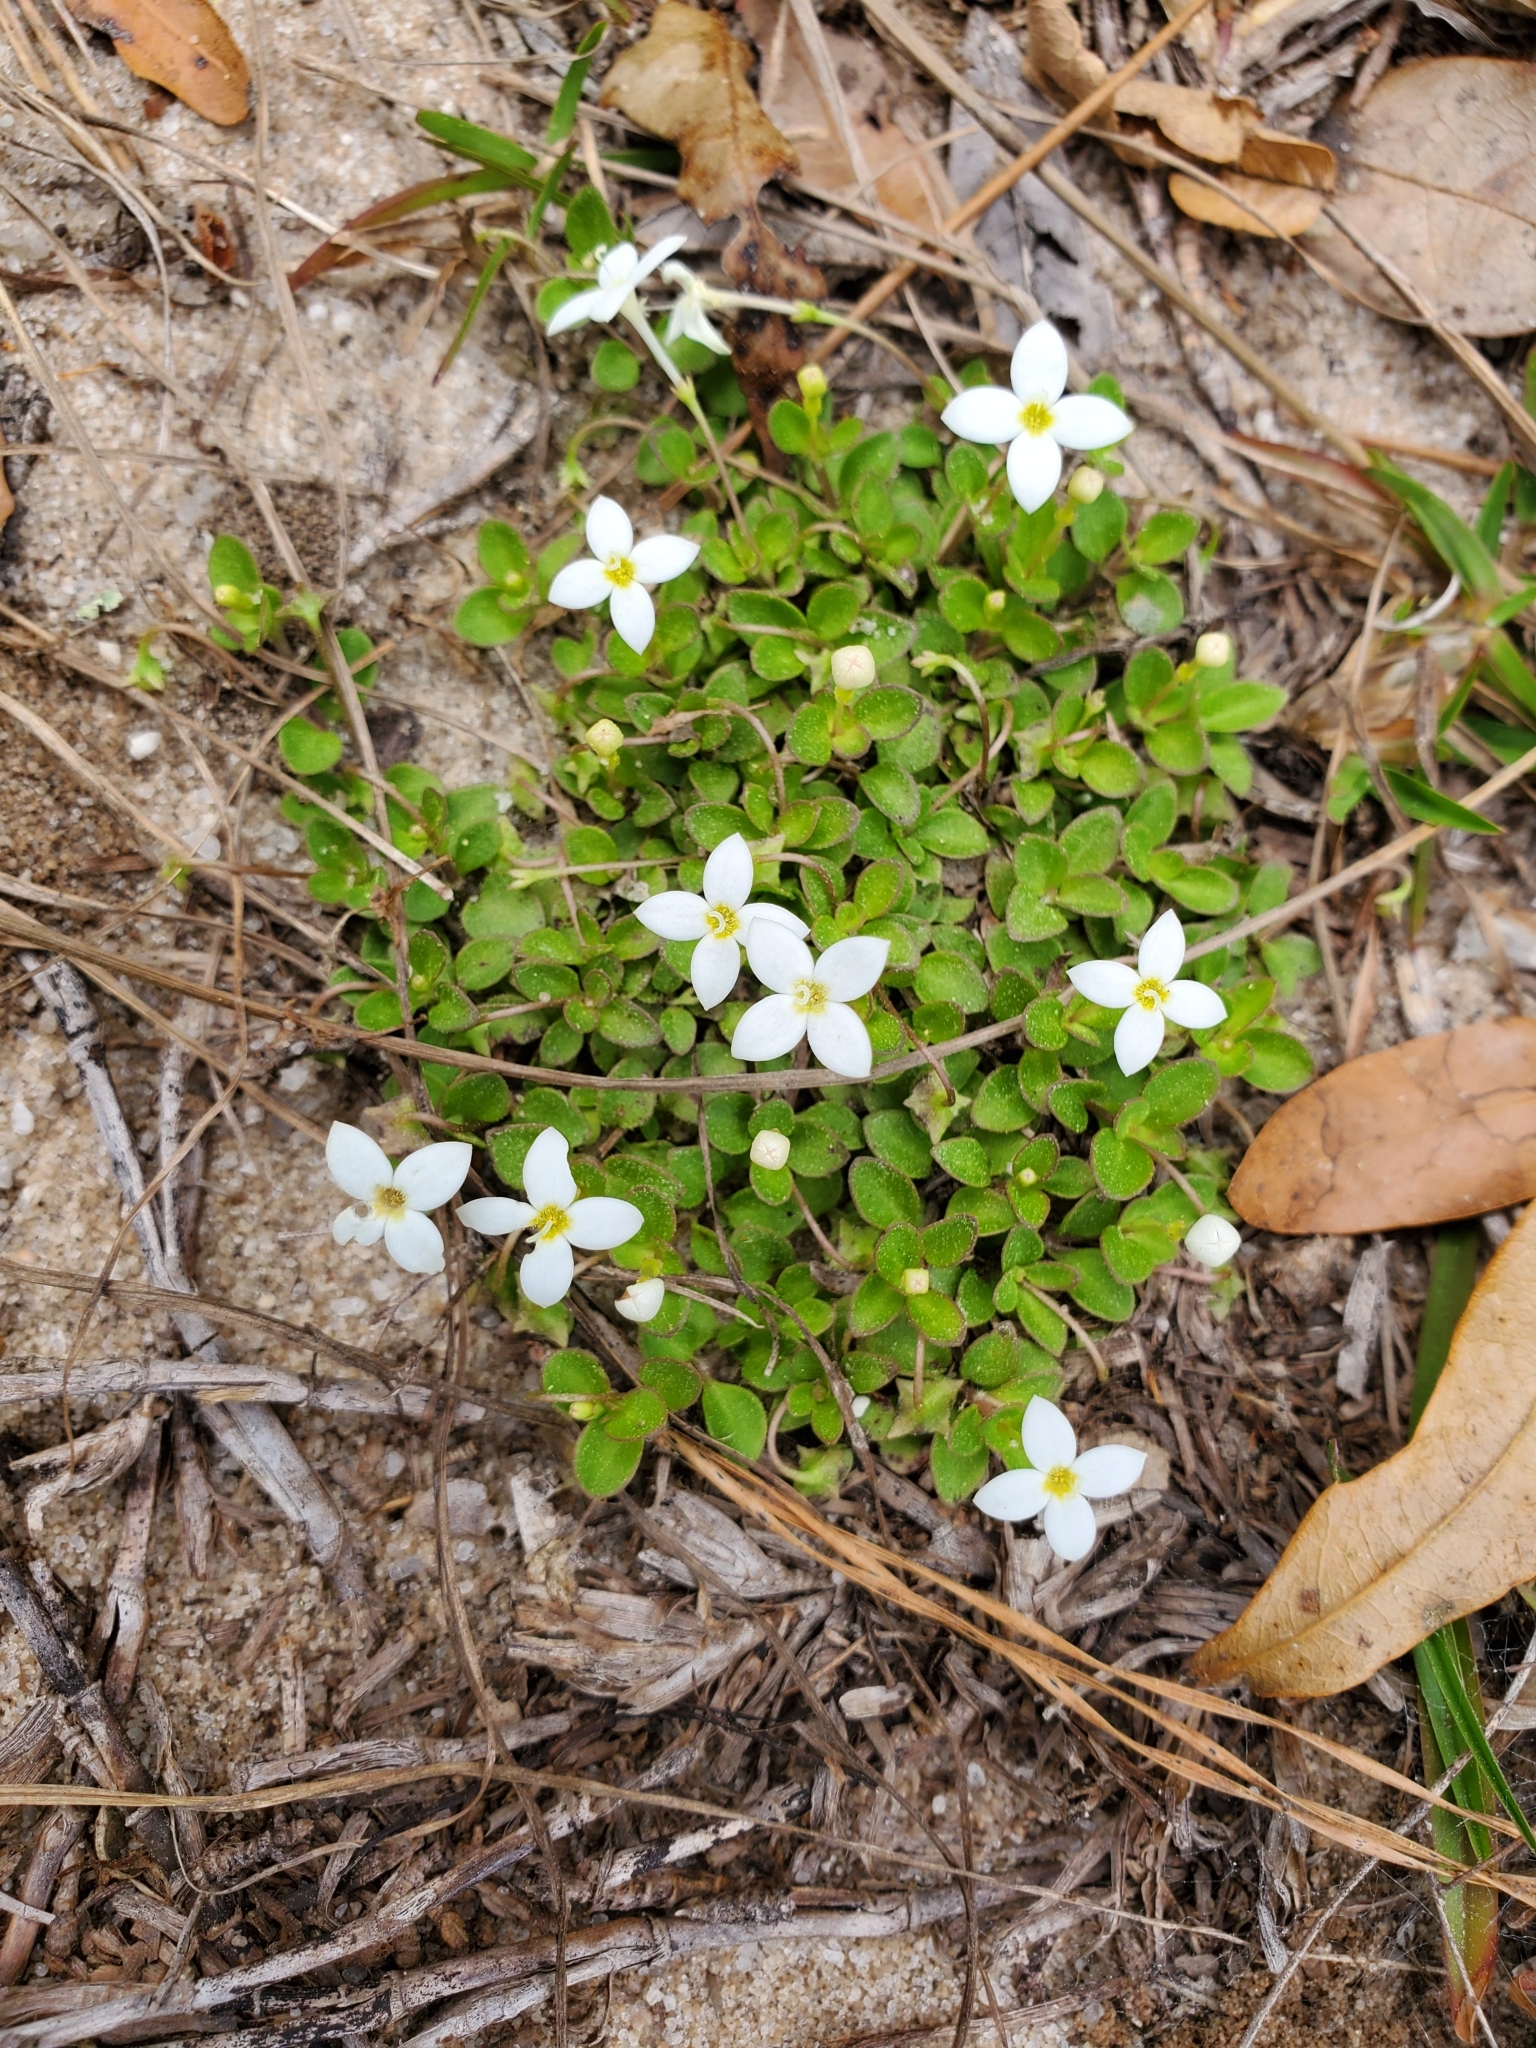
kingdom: Plantae
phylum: Tracheophyta
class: Magnoliopsida
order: Gentianales
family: Rubiaceae
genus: Houstonia
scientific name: Houstonia procumbens
